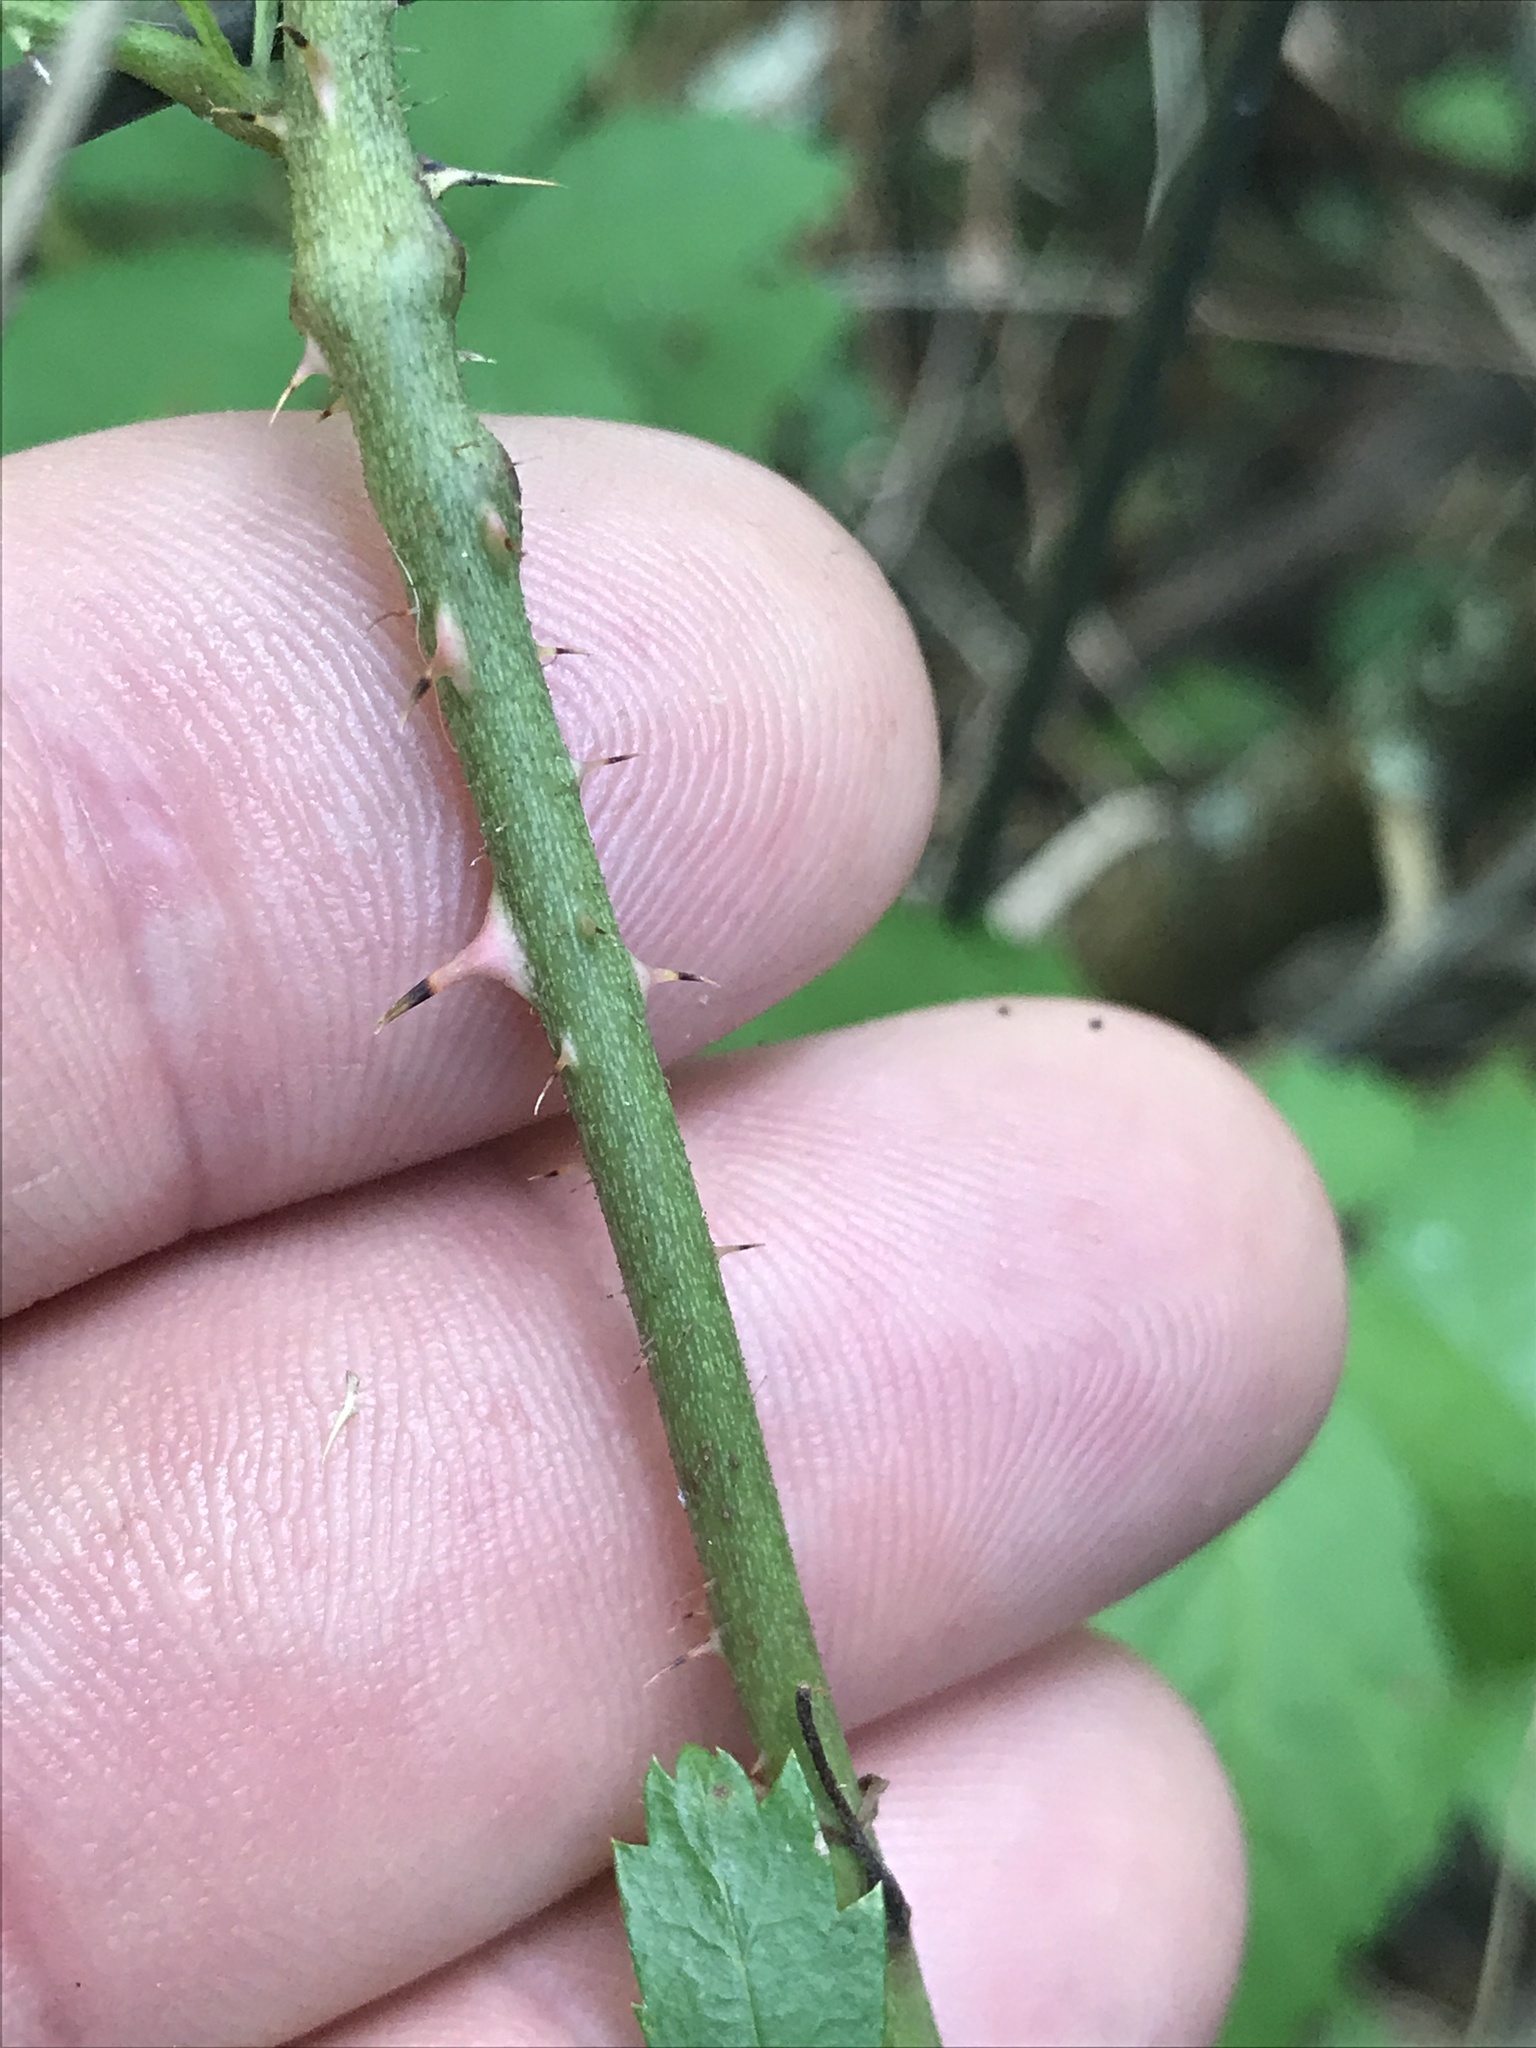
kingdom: Plantae
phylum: Tracheophyta
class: Magnoliopsida
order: Rosales
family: Rosaceae
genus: Rubus
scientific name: Rubus trivialis
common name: Southern dewberry
